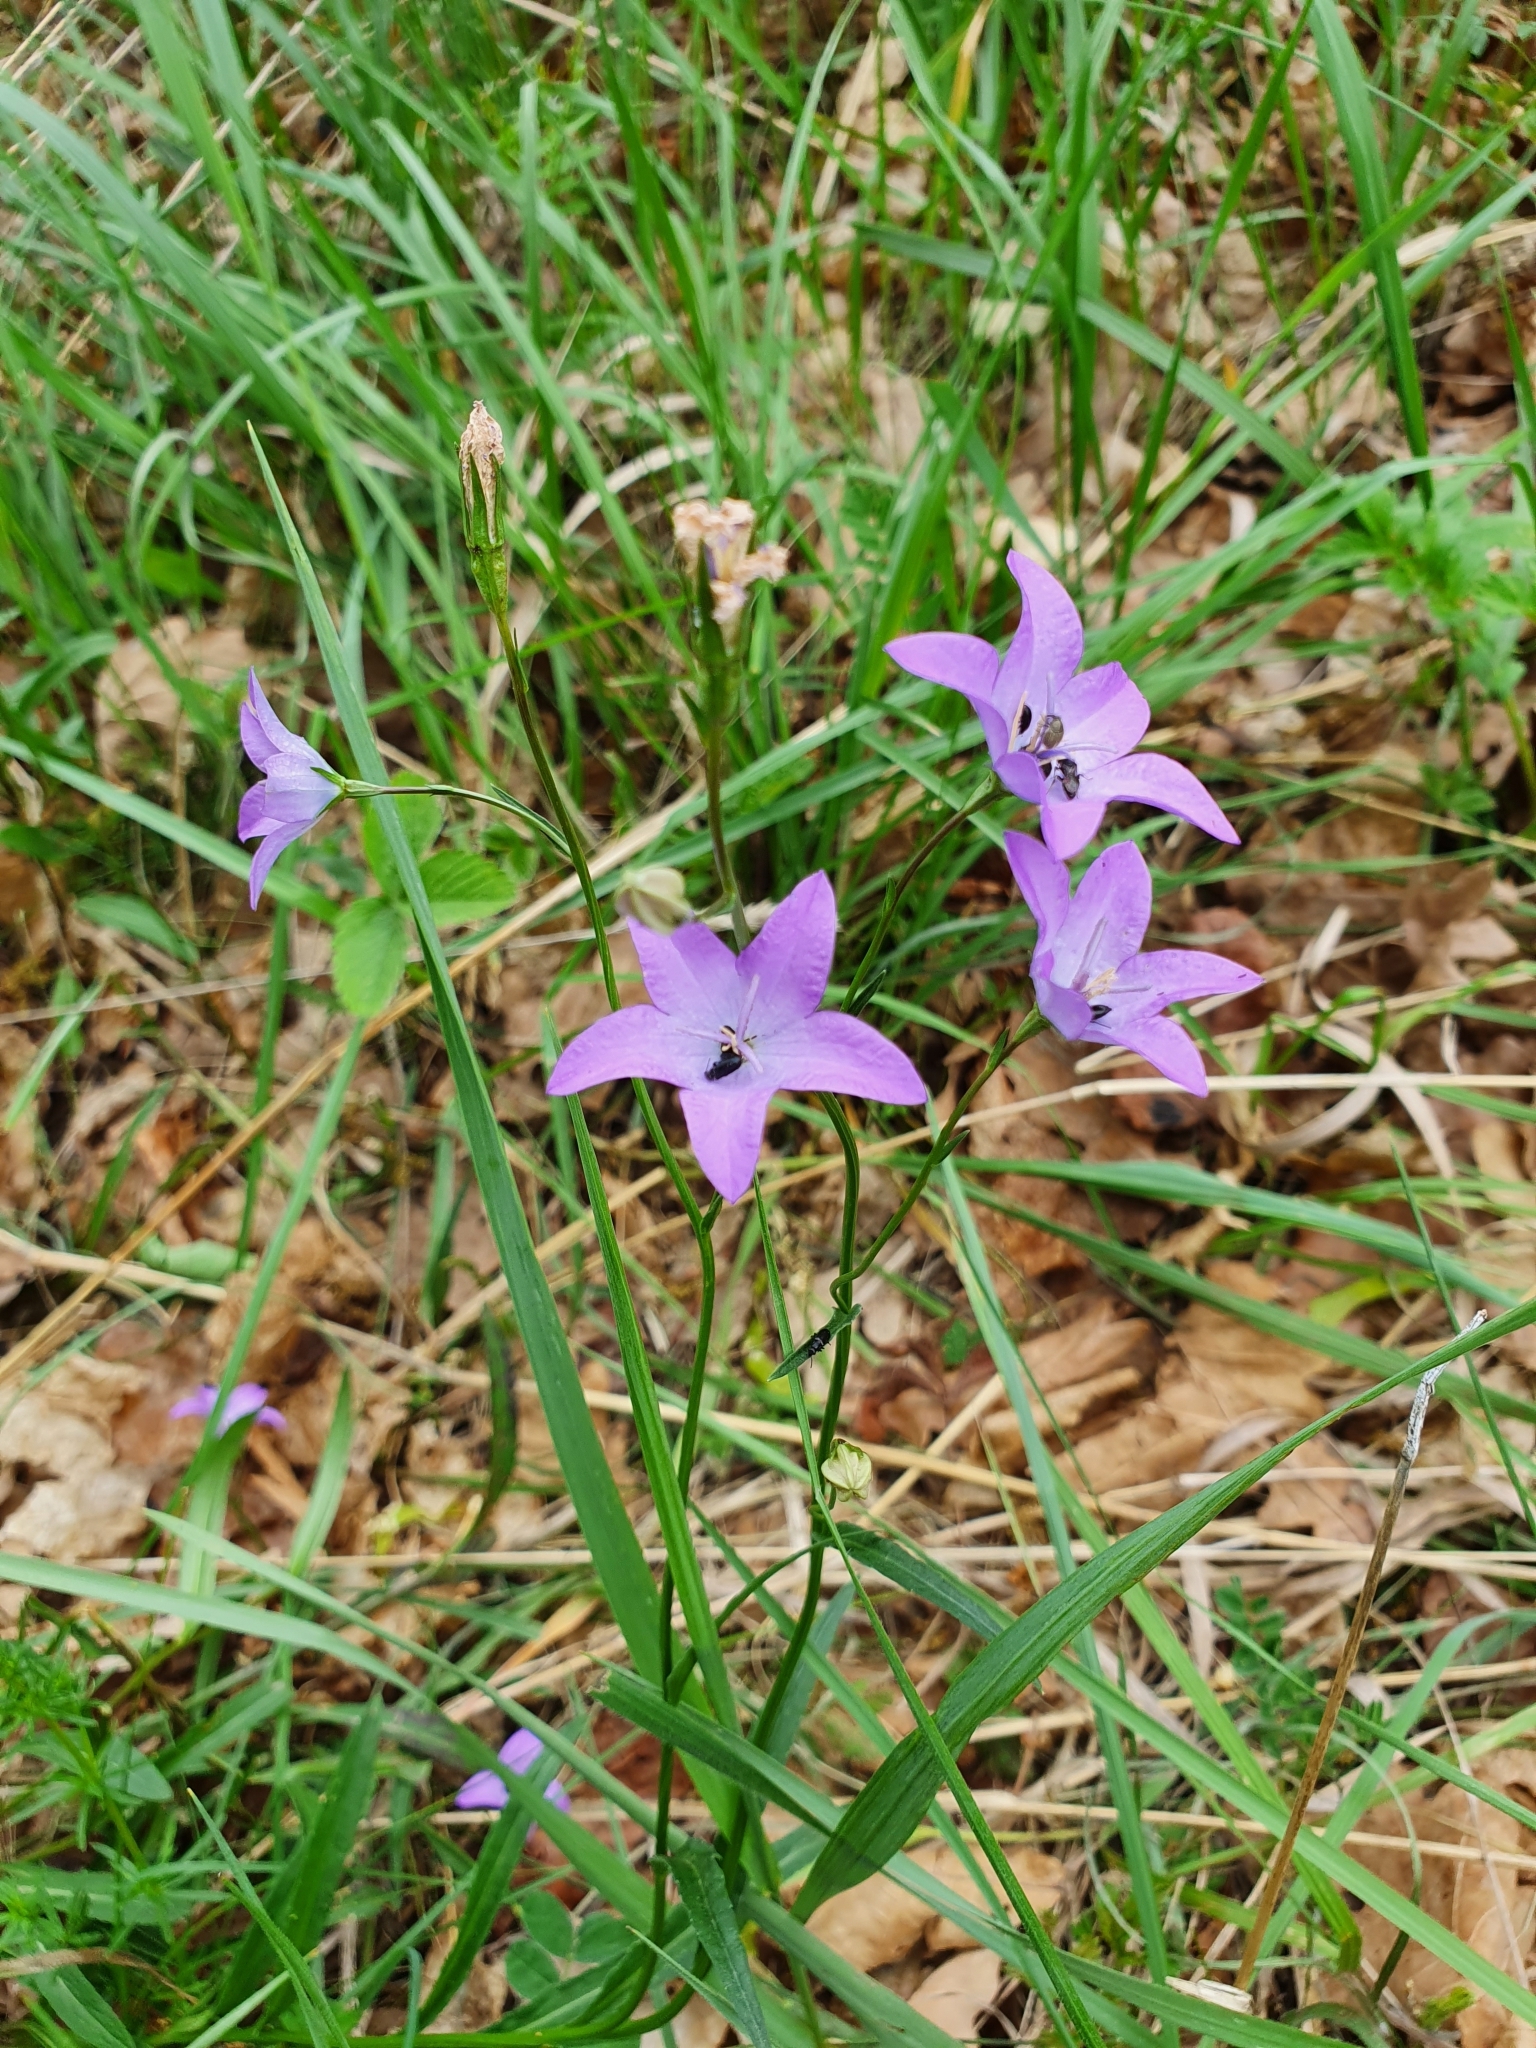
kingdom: Plantae
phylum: Tracheophyta
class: Magnoliopsida
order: Asterales
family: Campanulaceae
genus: Campanula
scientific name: Campanula stevenii
